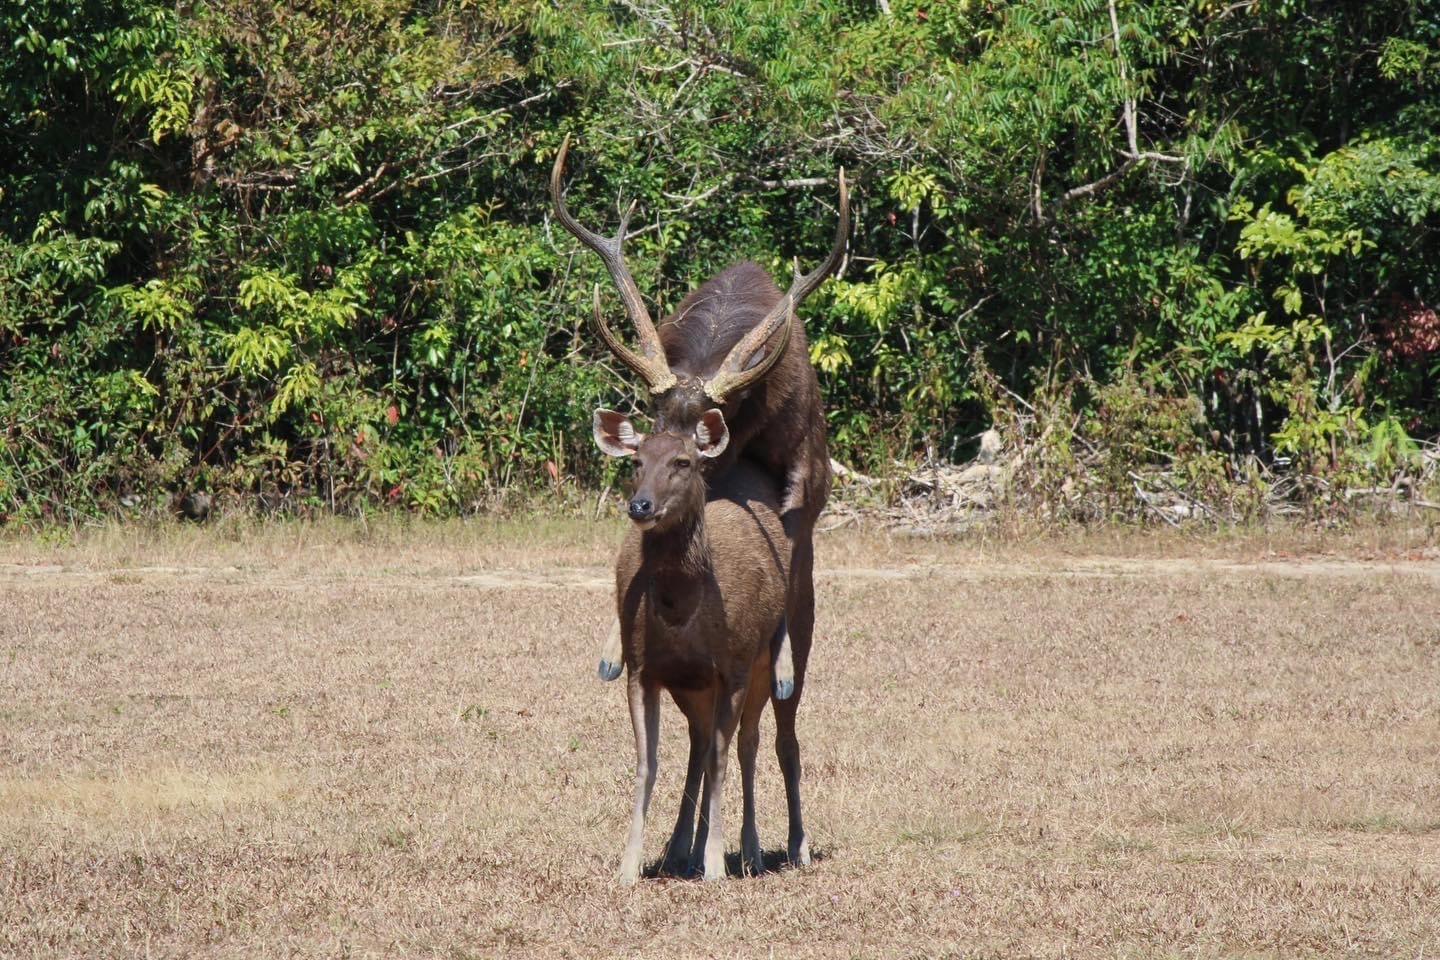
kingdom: Animalia
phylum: Chordata
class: Mammalia
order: Artiodactyla
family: Cervidae
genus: Rusa
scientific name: Rusa unicolor
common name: Sambar
